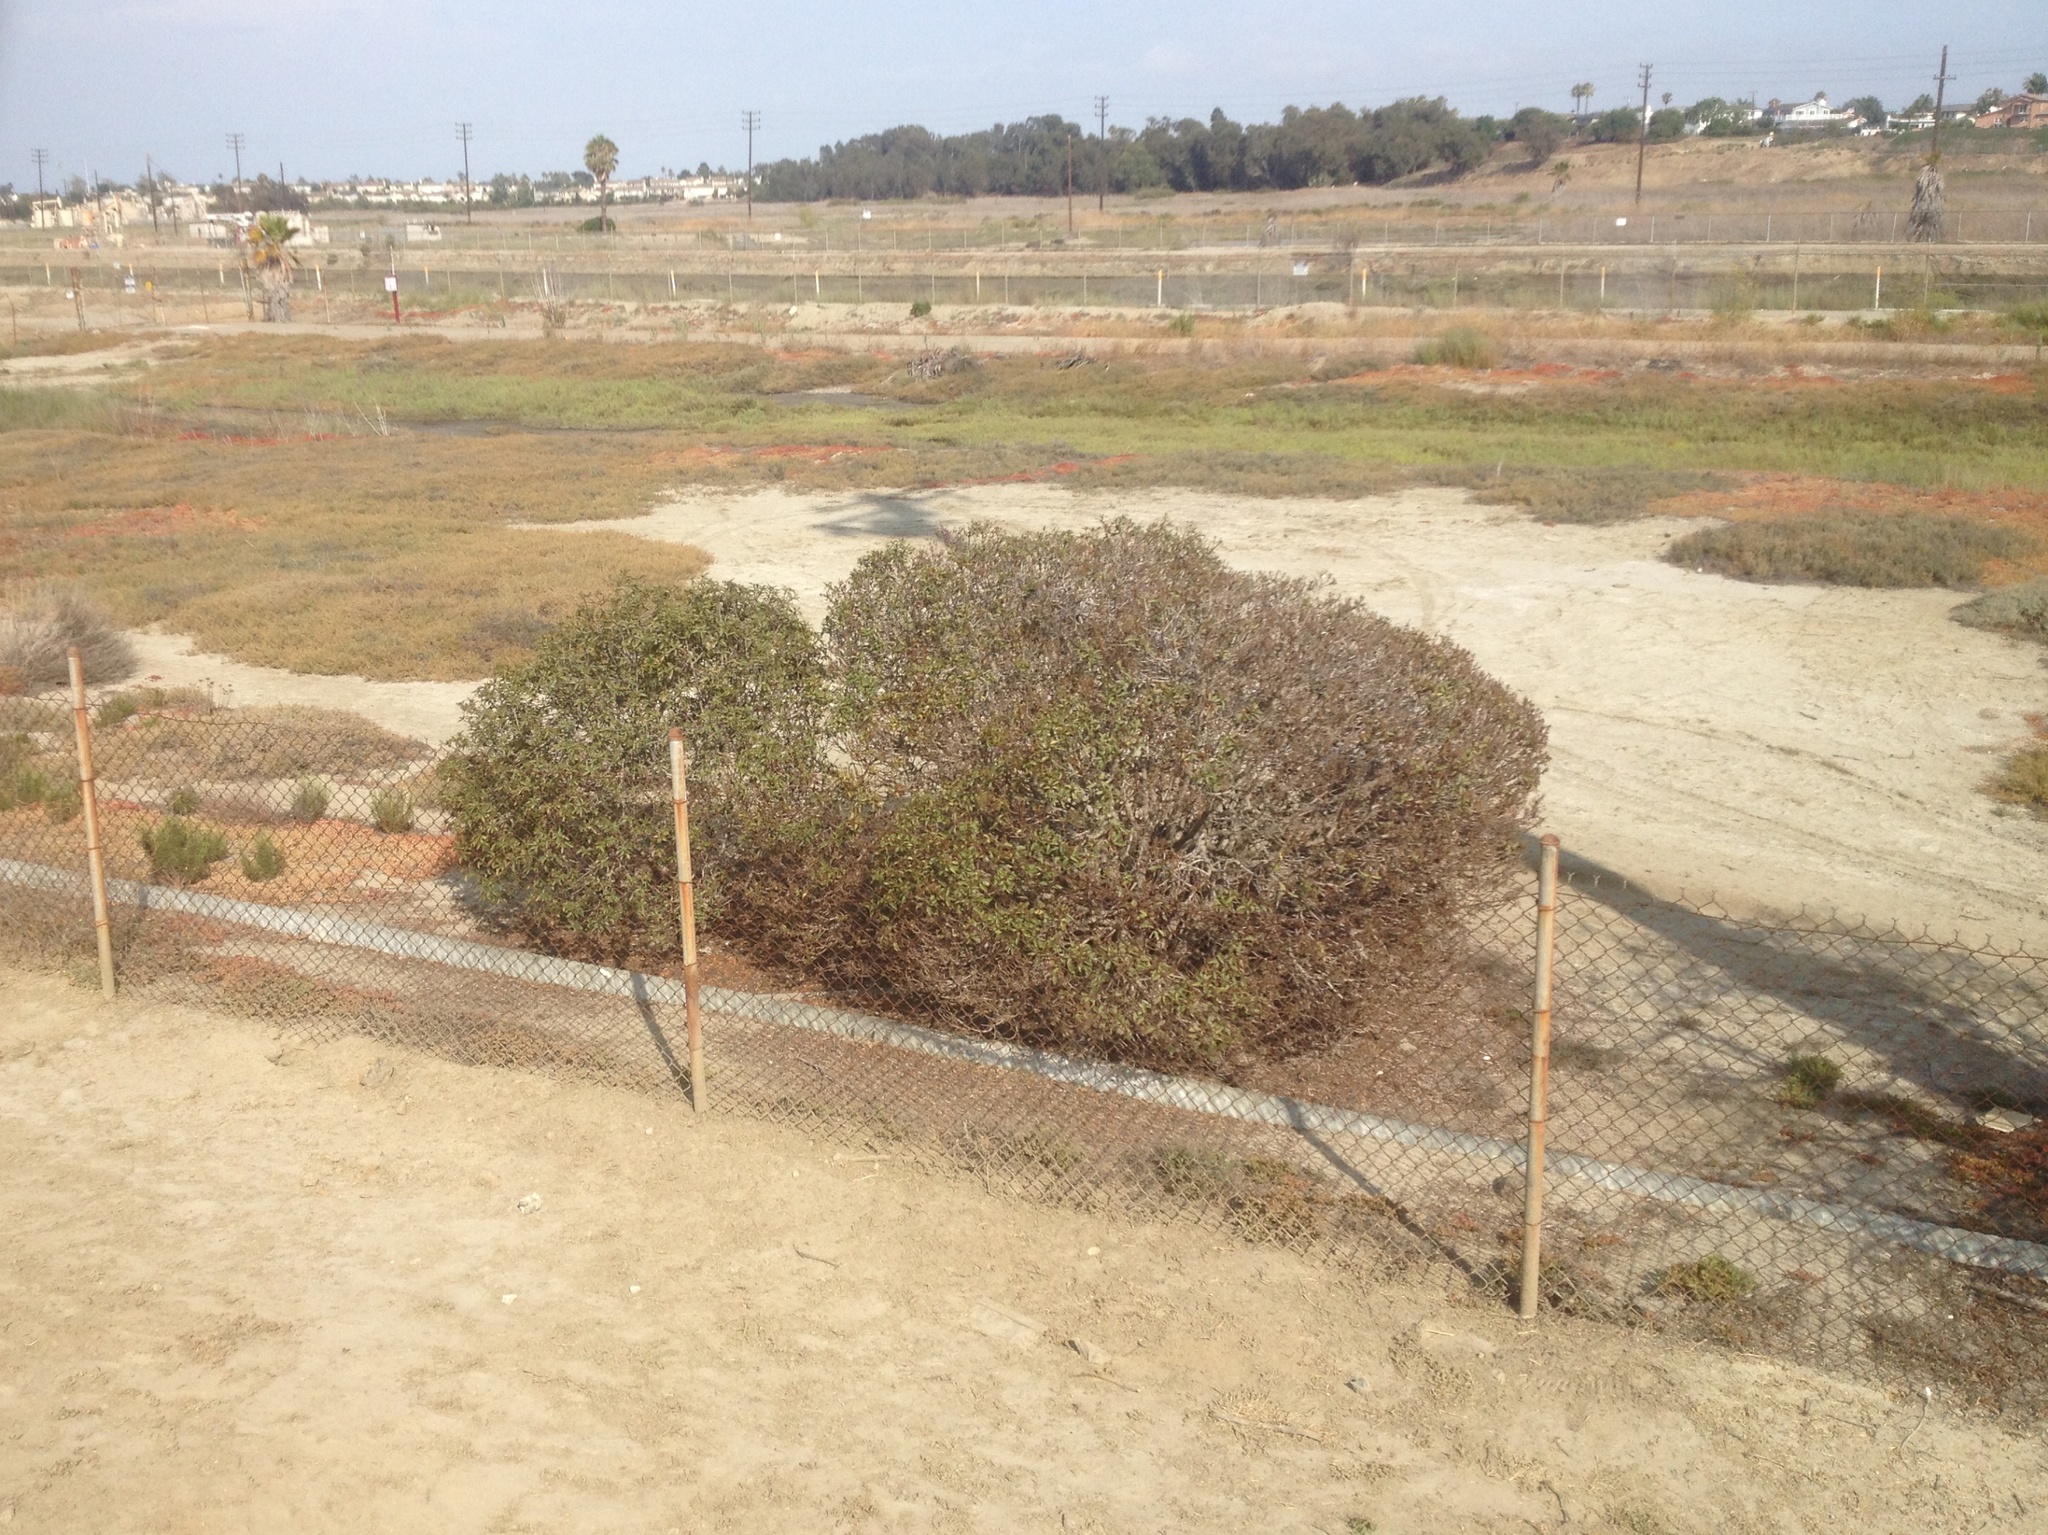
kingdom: Plantae
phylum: Tracheophyta
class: Magnoliopsida
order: Lamiales
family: Scrophulariaceae
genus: Myoporum
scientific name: Myoporum laetum
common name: Ngaio tree
